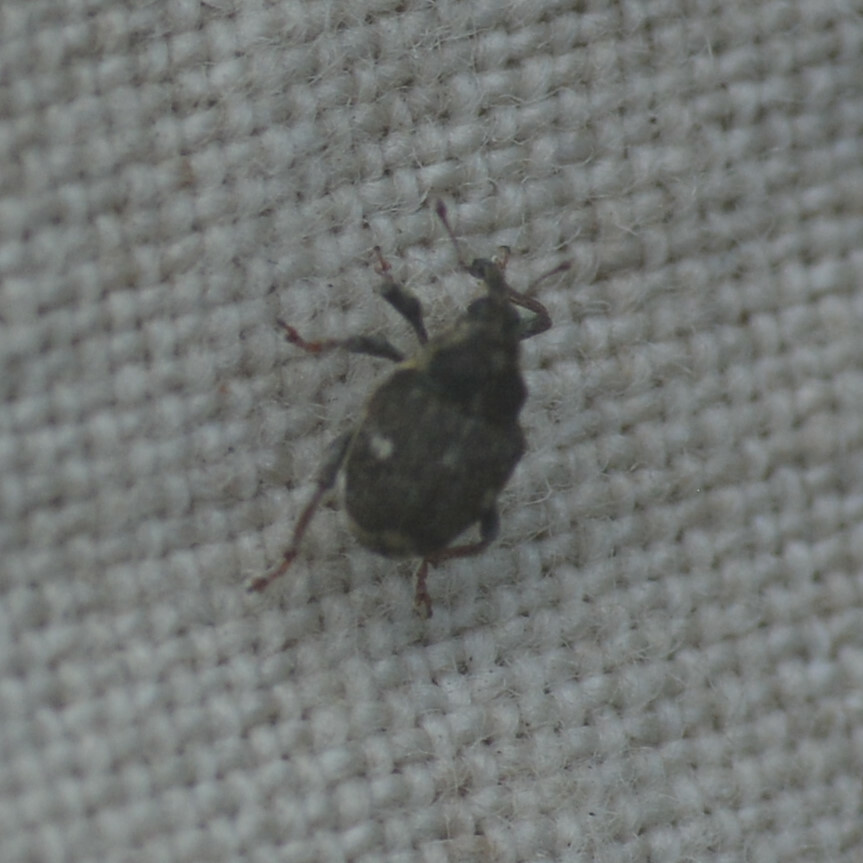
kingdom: Animalia
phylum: Arthropoda
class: Insecta
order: Coleoptera
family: Curculionidae
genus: Nedyus
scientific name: Nedyus quadrimaculatus
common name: Small nettle weevil
